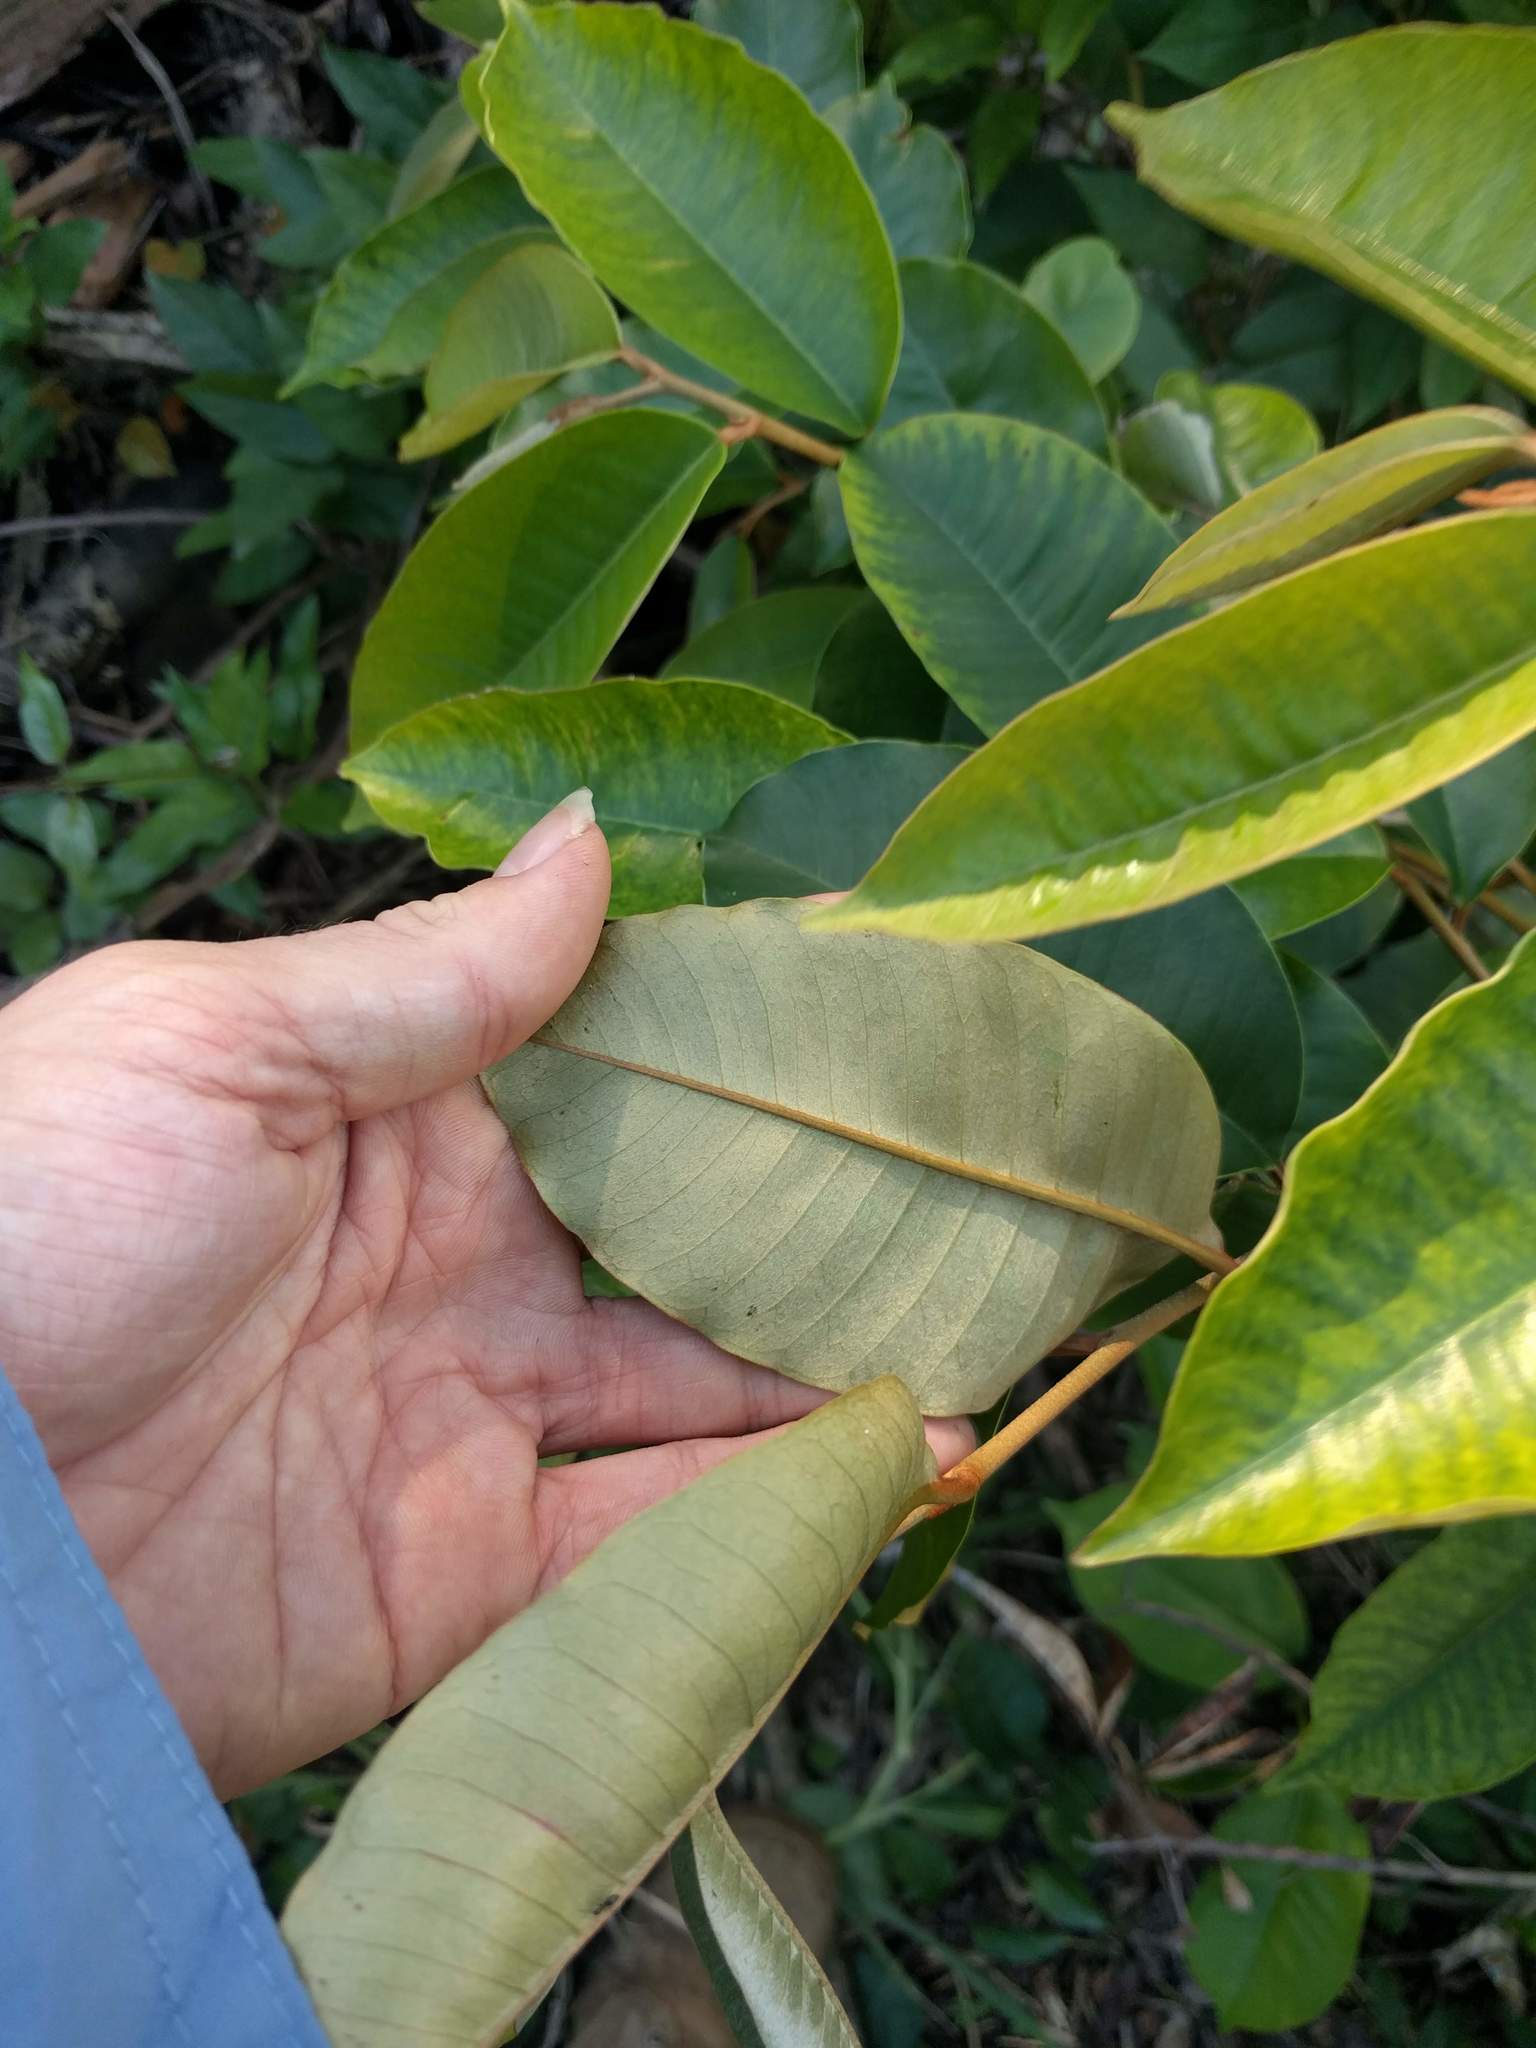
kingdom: Plantae
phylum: Tracheophyta
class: Magnoliopsida
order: Ericales
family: Sapotaceae
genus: Chrysophyllum
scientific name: Chrysophyllum oliviforme
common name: Satinleaf
